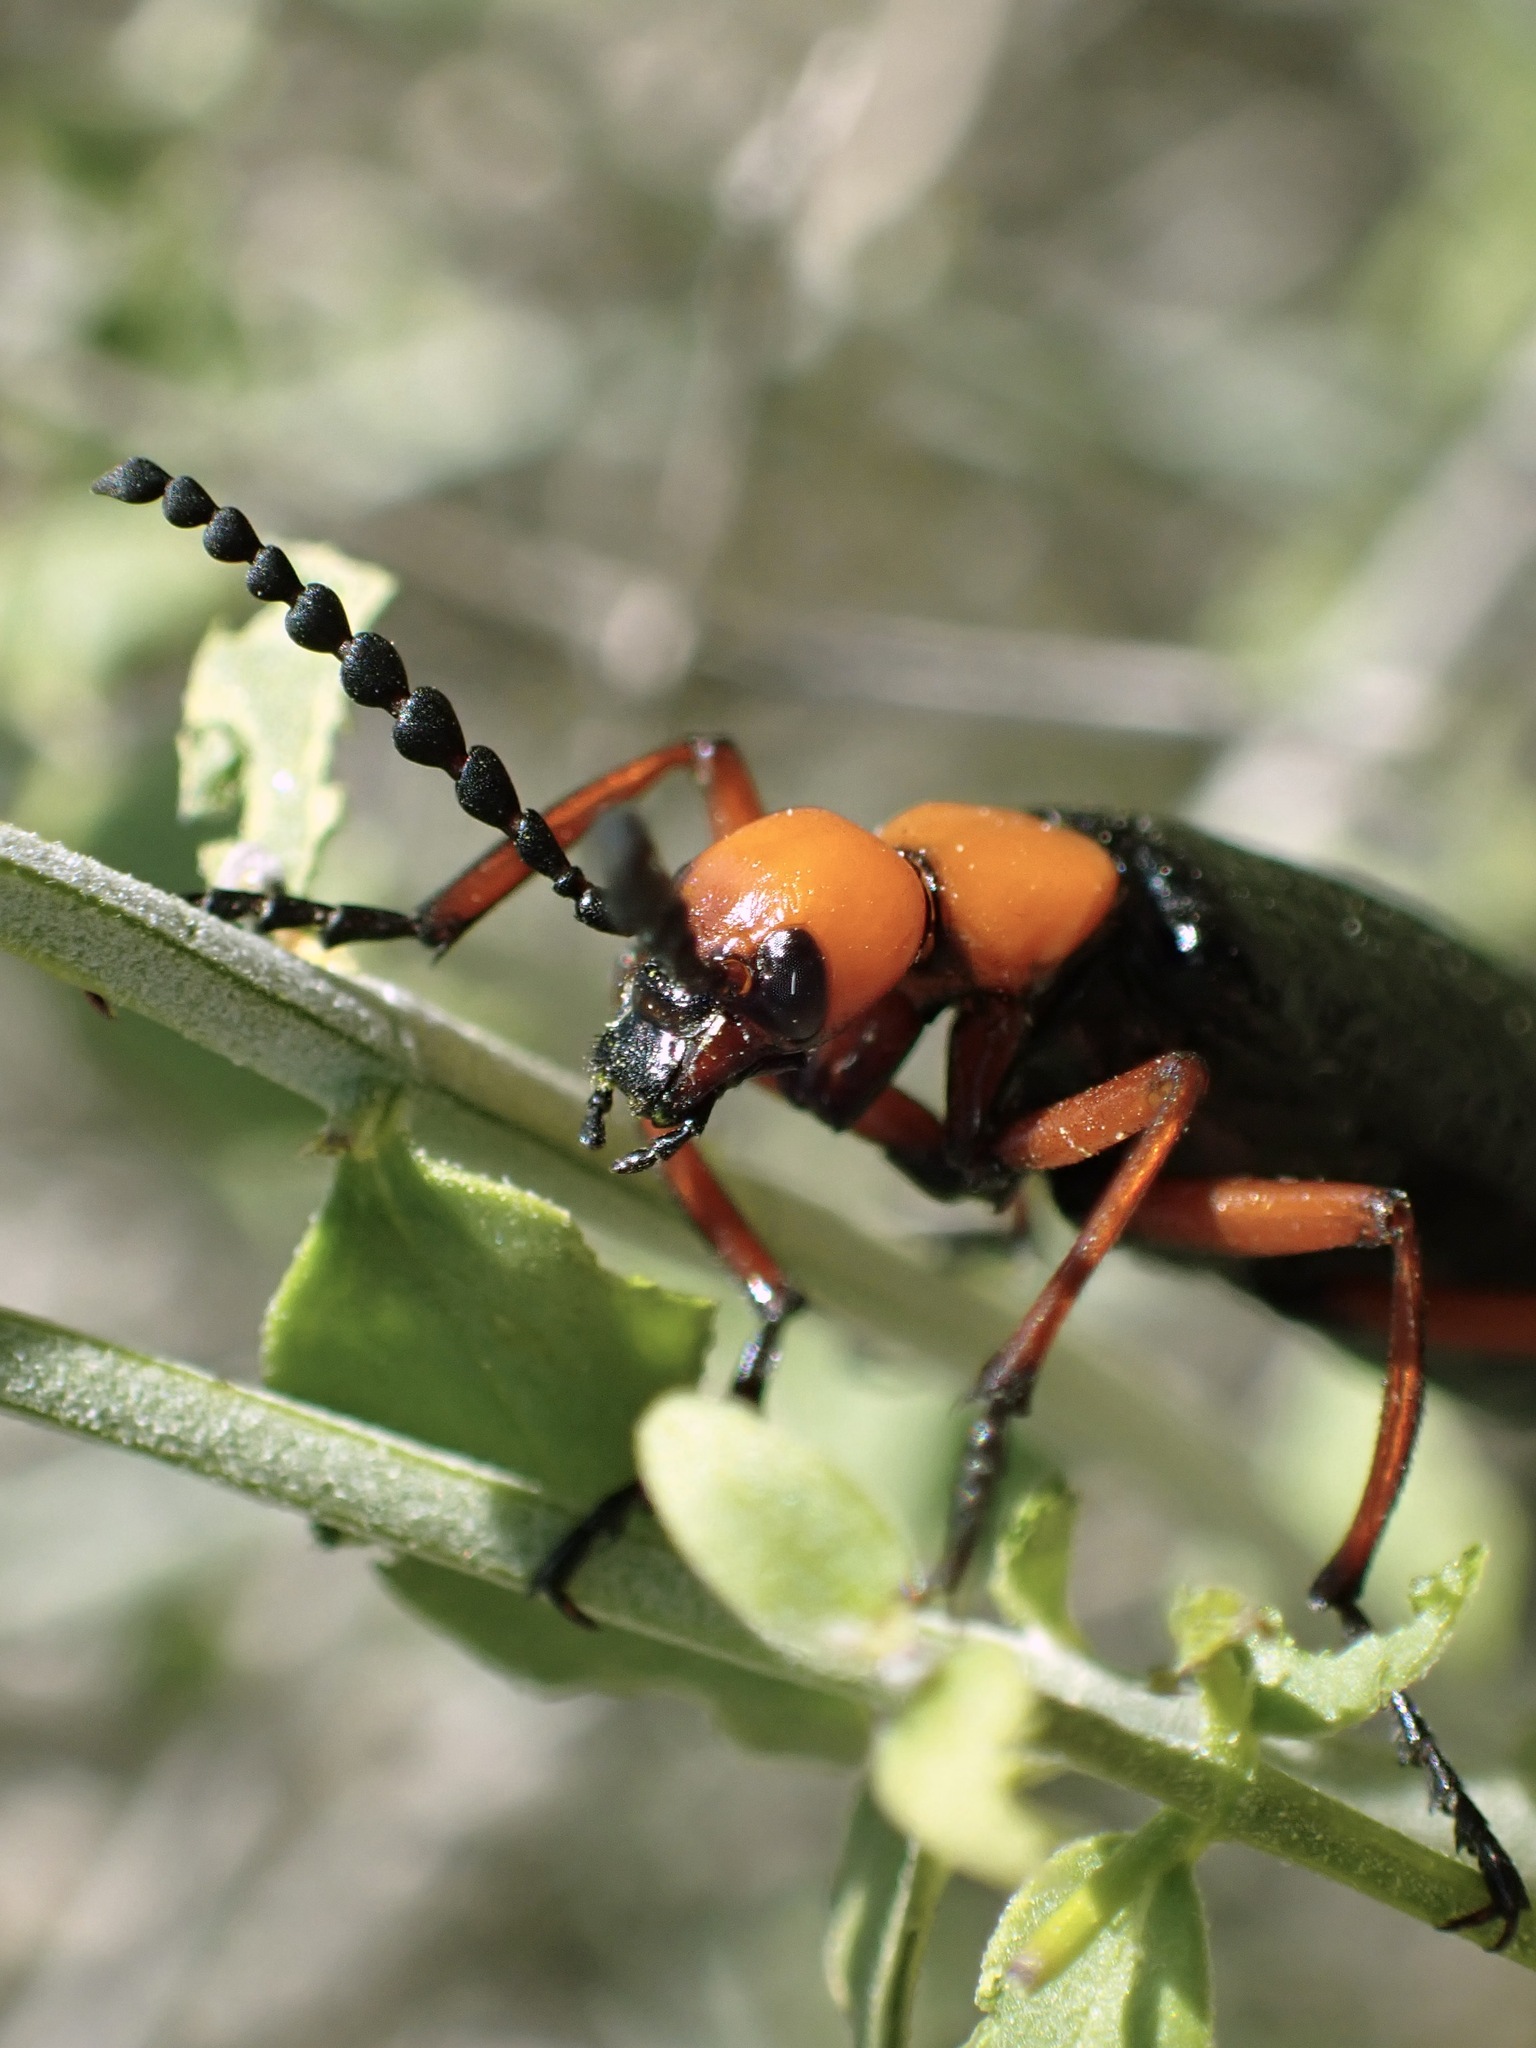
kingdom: Animalia
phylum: Arthropoda
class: Insecta
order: Coleoptera
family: Meloidae
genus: Lytta
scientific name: Lytta magister
